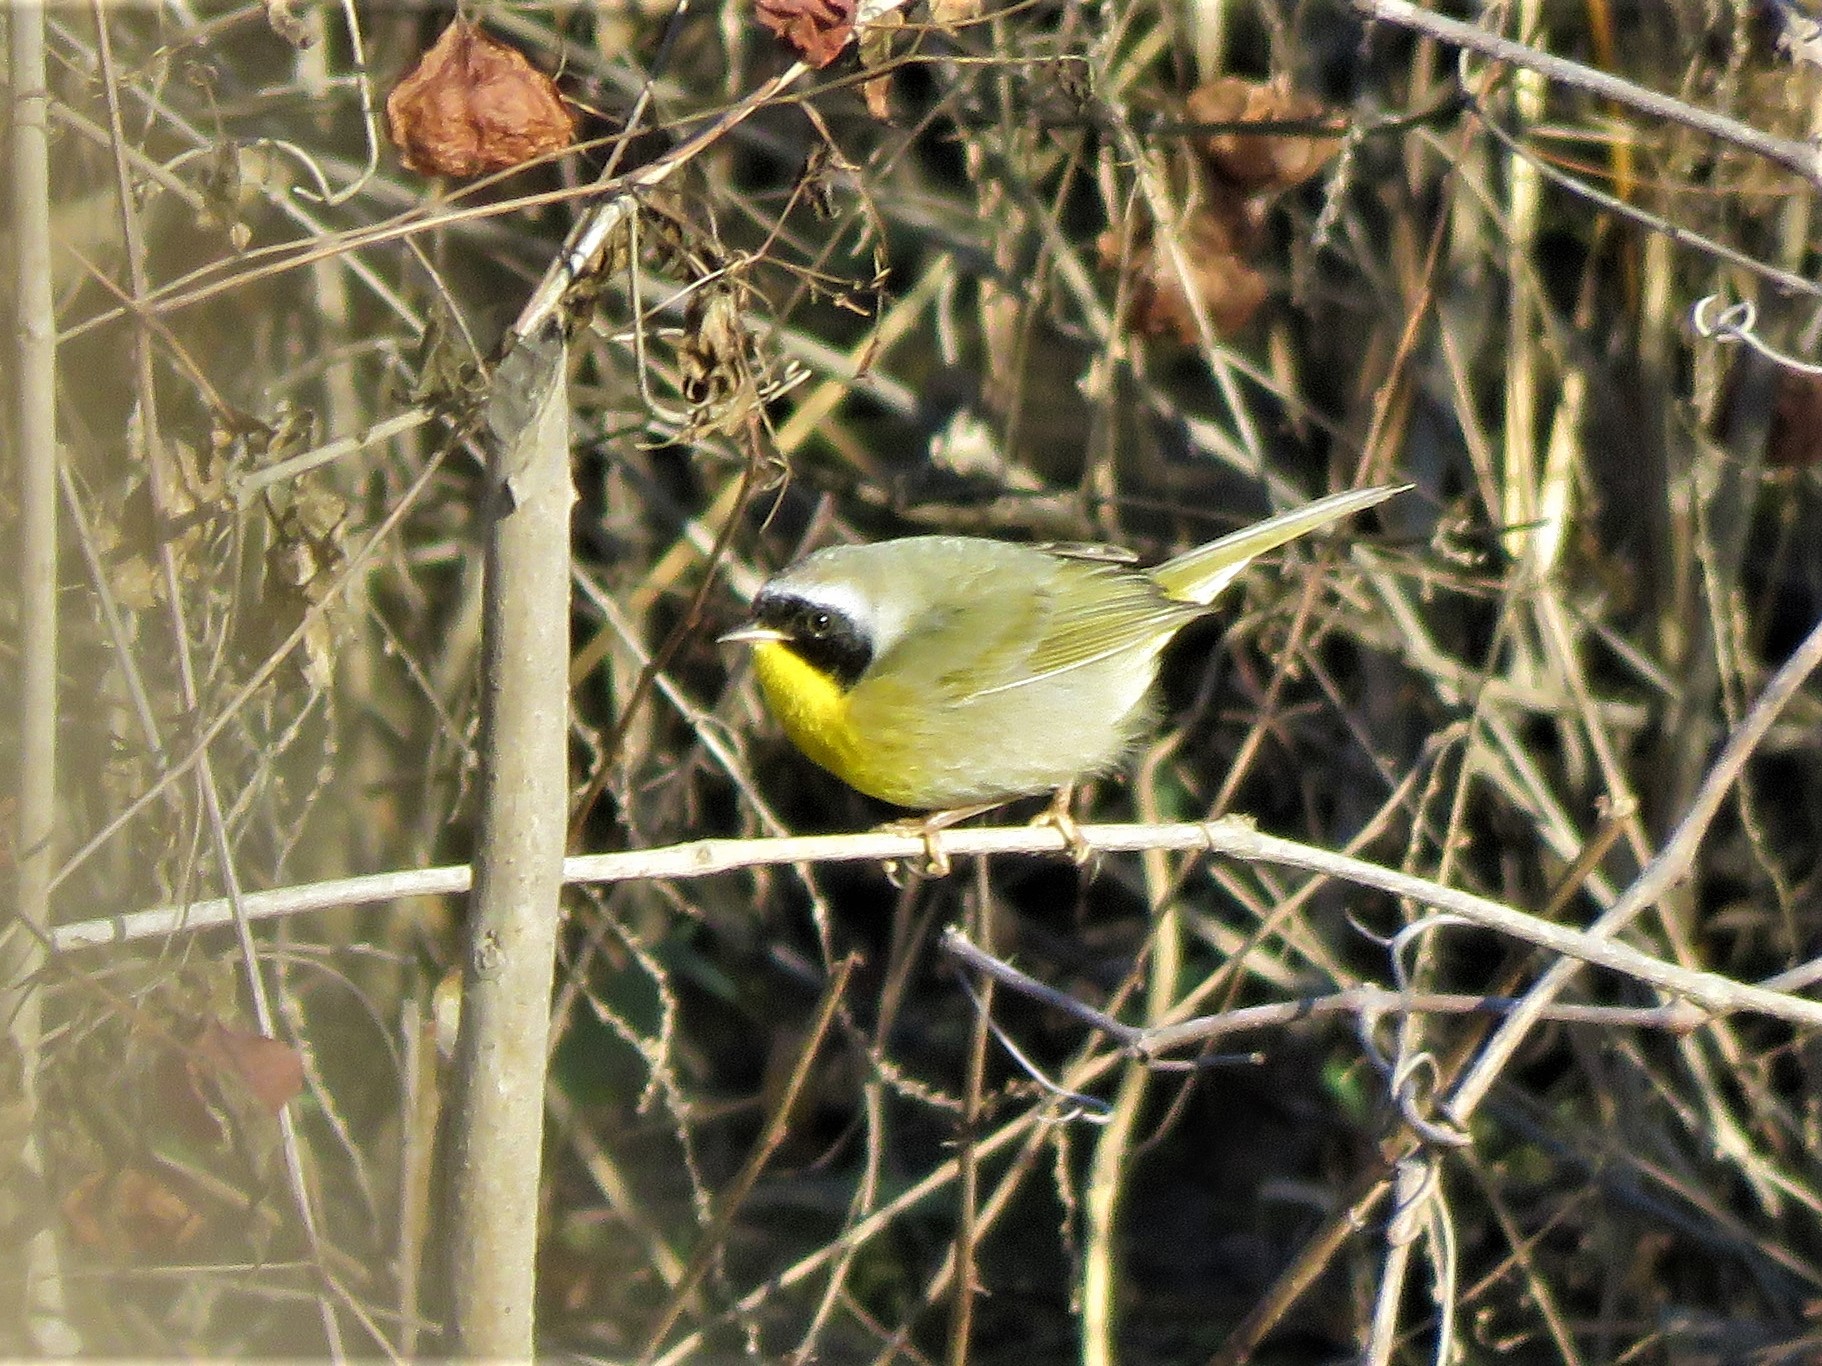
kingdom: Animalia
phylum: Chordata
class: Aves
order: Passeriformes
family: Parulidae
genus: Geothlypis
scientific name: Geothlypis trichas
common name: Common yellowthroat
